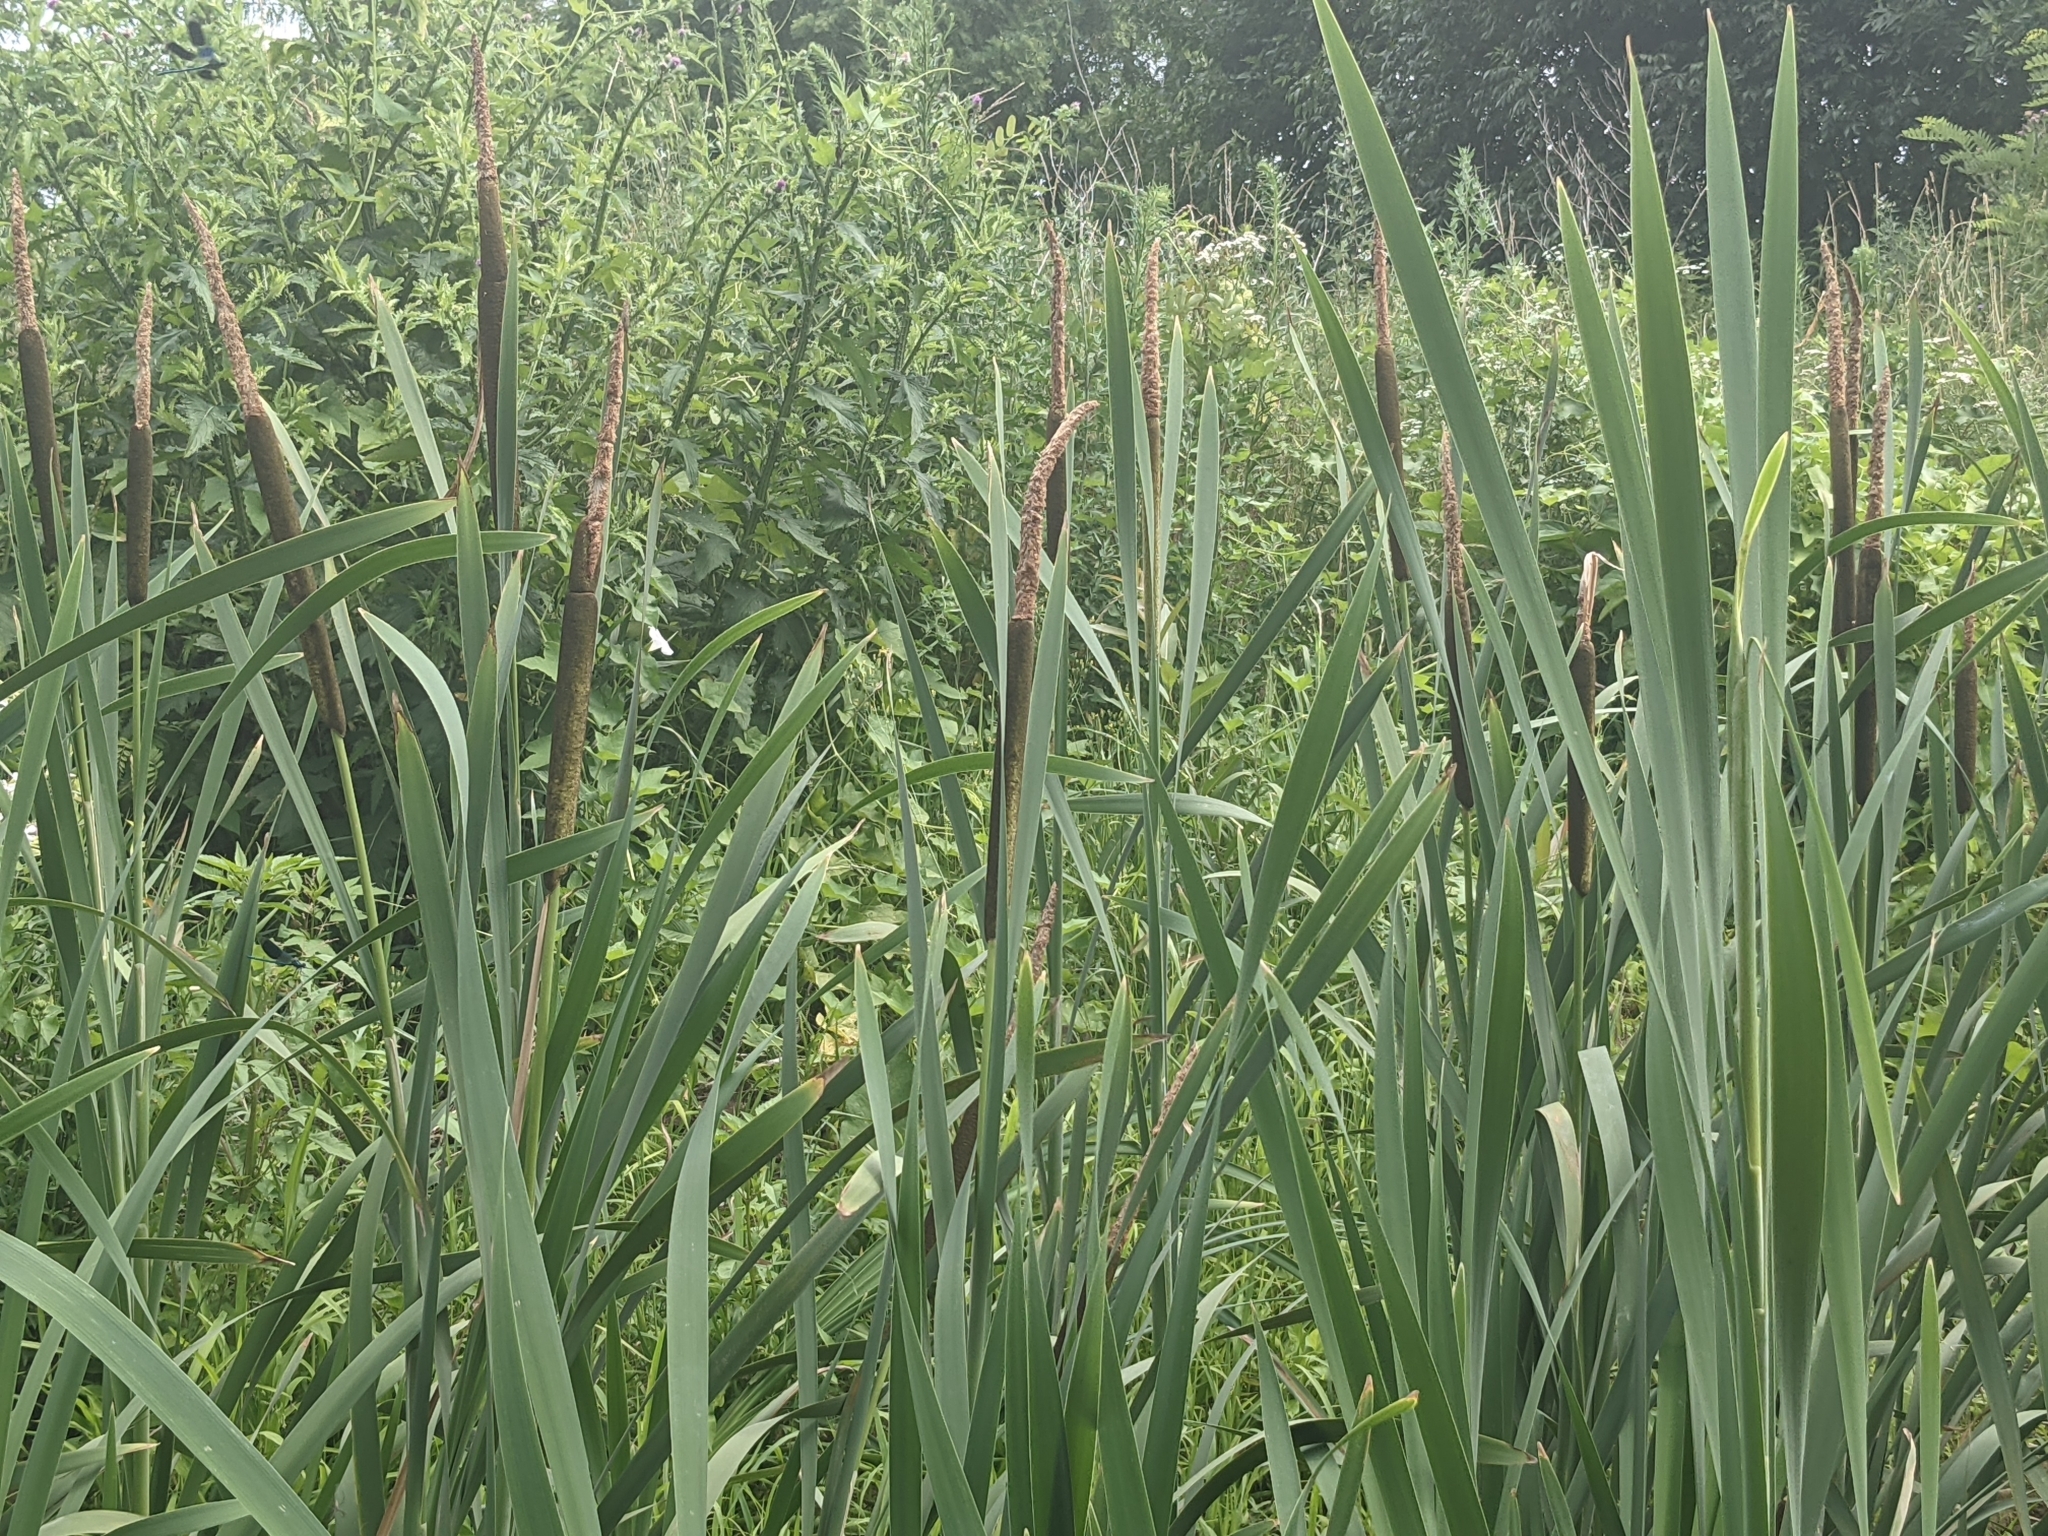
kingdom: Plantae
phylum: Tracheophyta
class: Liliopsida
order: Poales
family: Typhaceae
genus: Typha
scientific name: Typha latifolia
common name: Broadleaf cattail
